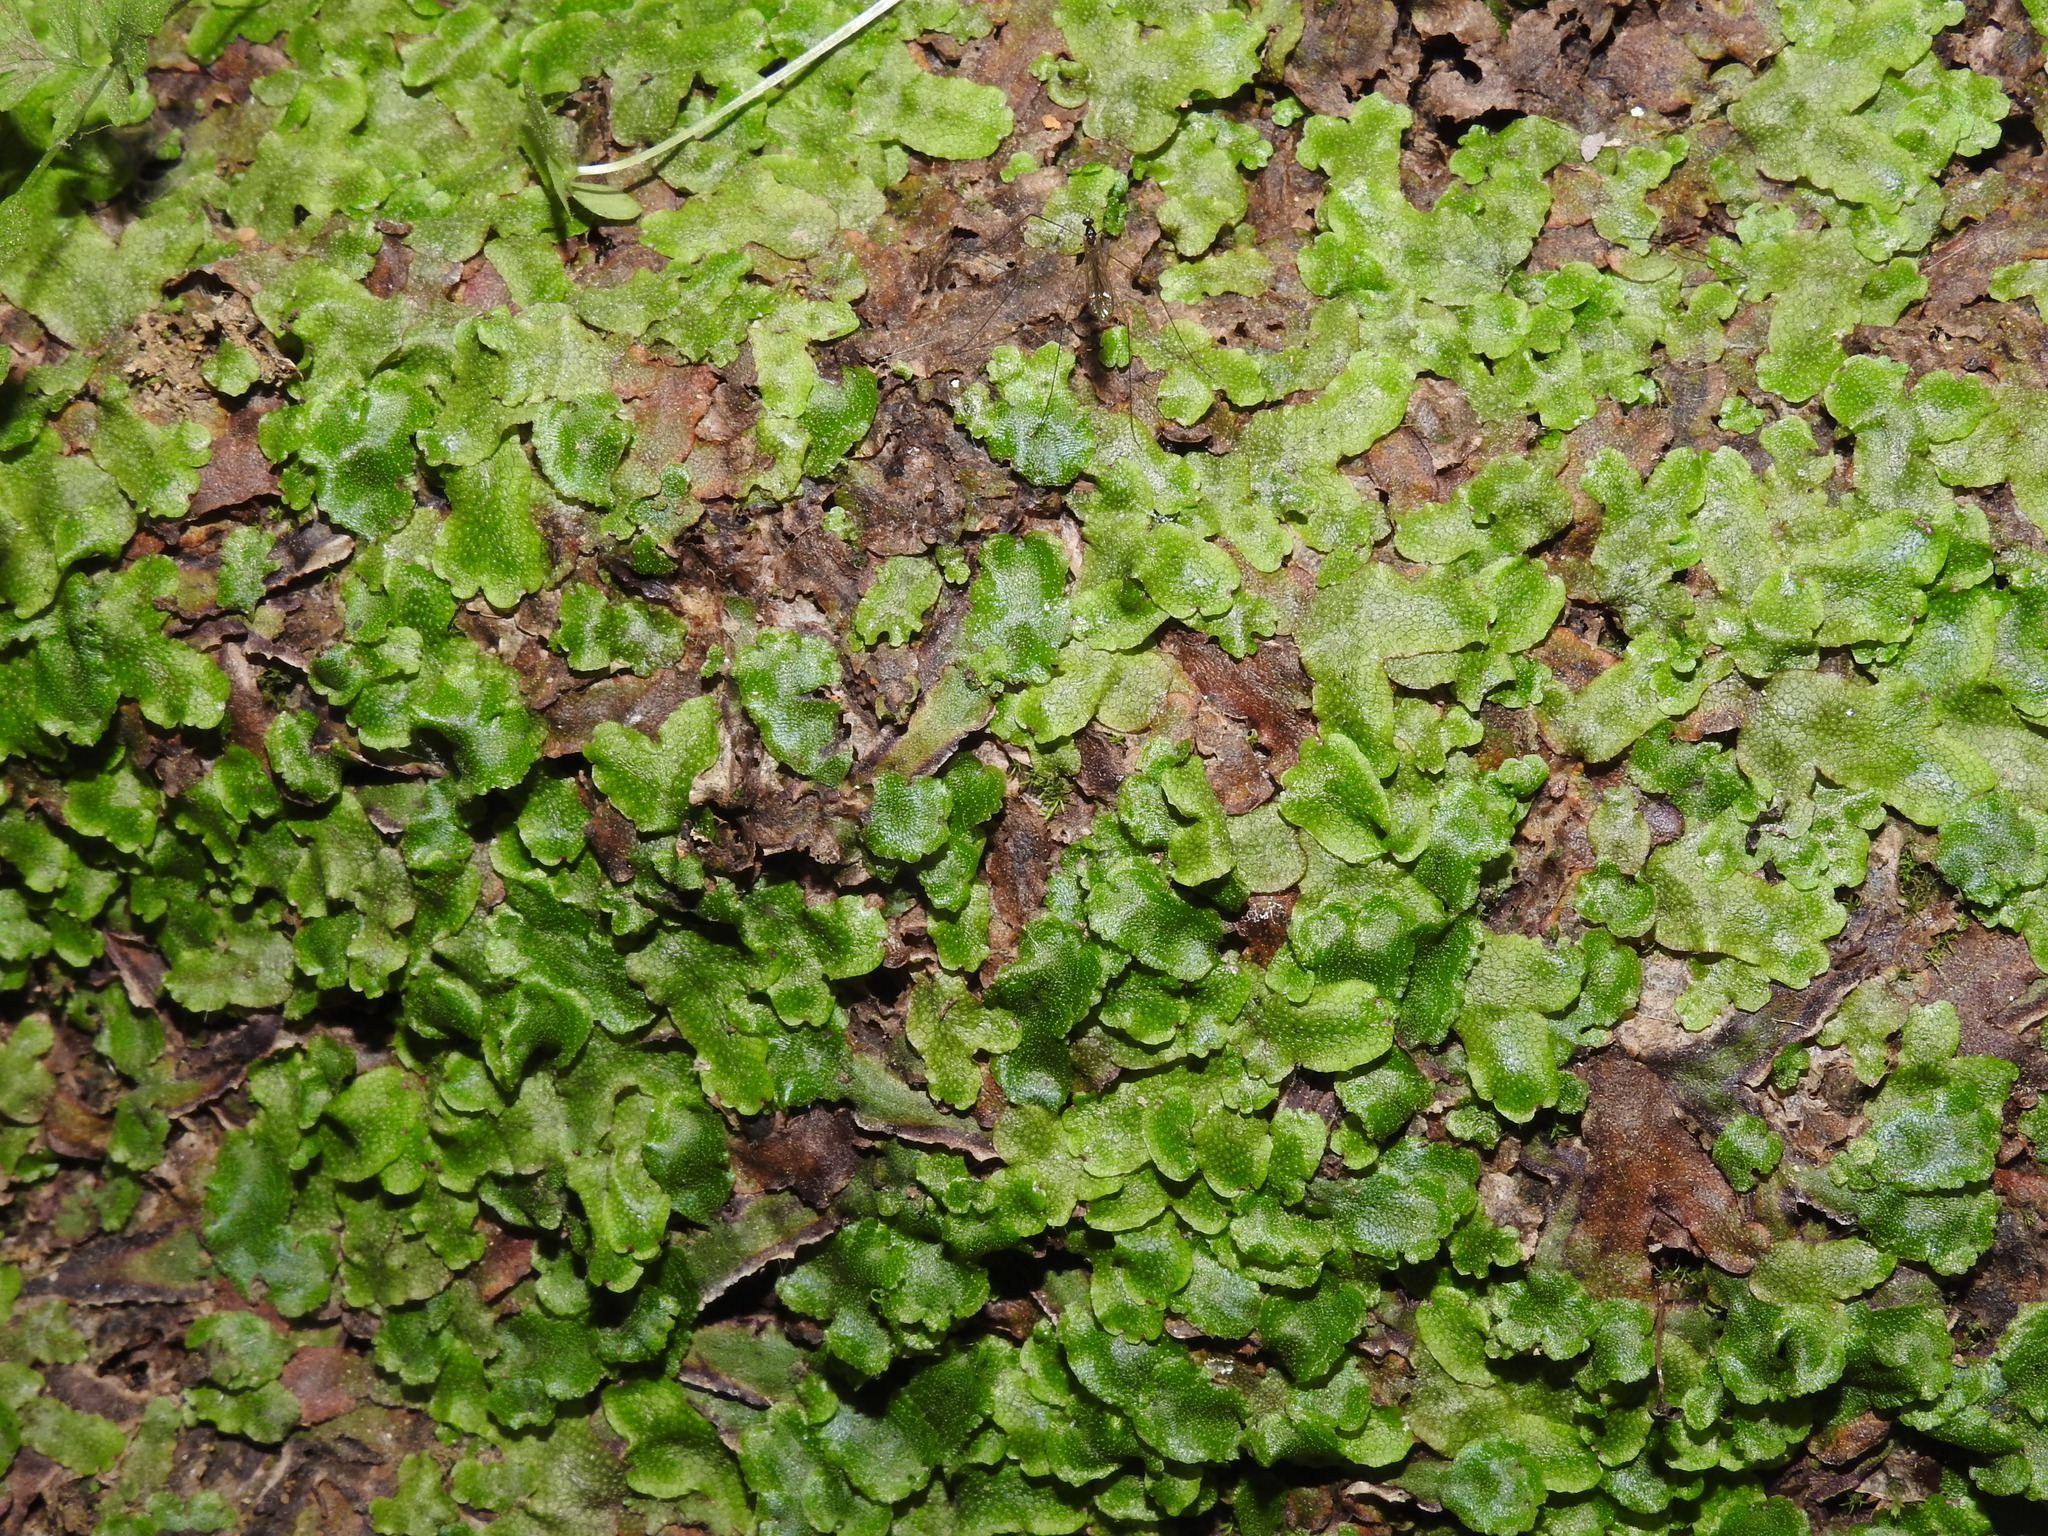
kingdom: Plantae
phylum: Marchantiophyta
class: Marchantiopsida
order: Marchantiales
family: Conocephalaceae
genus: Conocephalum
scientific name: Conocephalum salebrosum
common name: Cat-tongue liverwort
